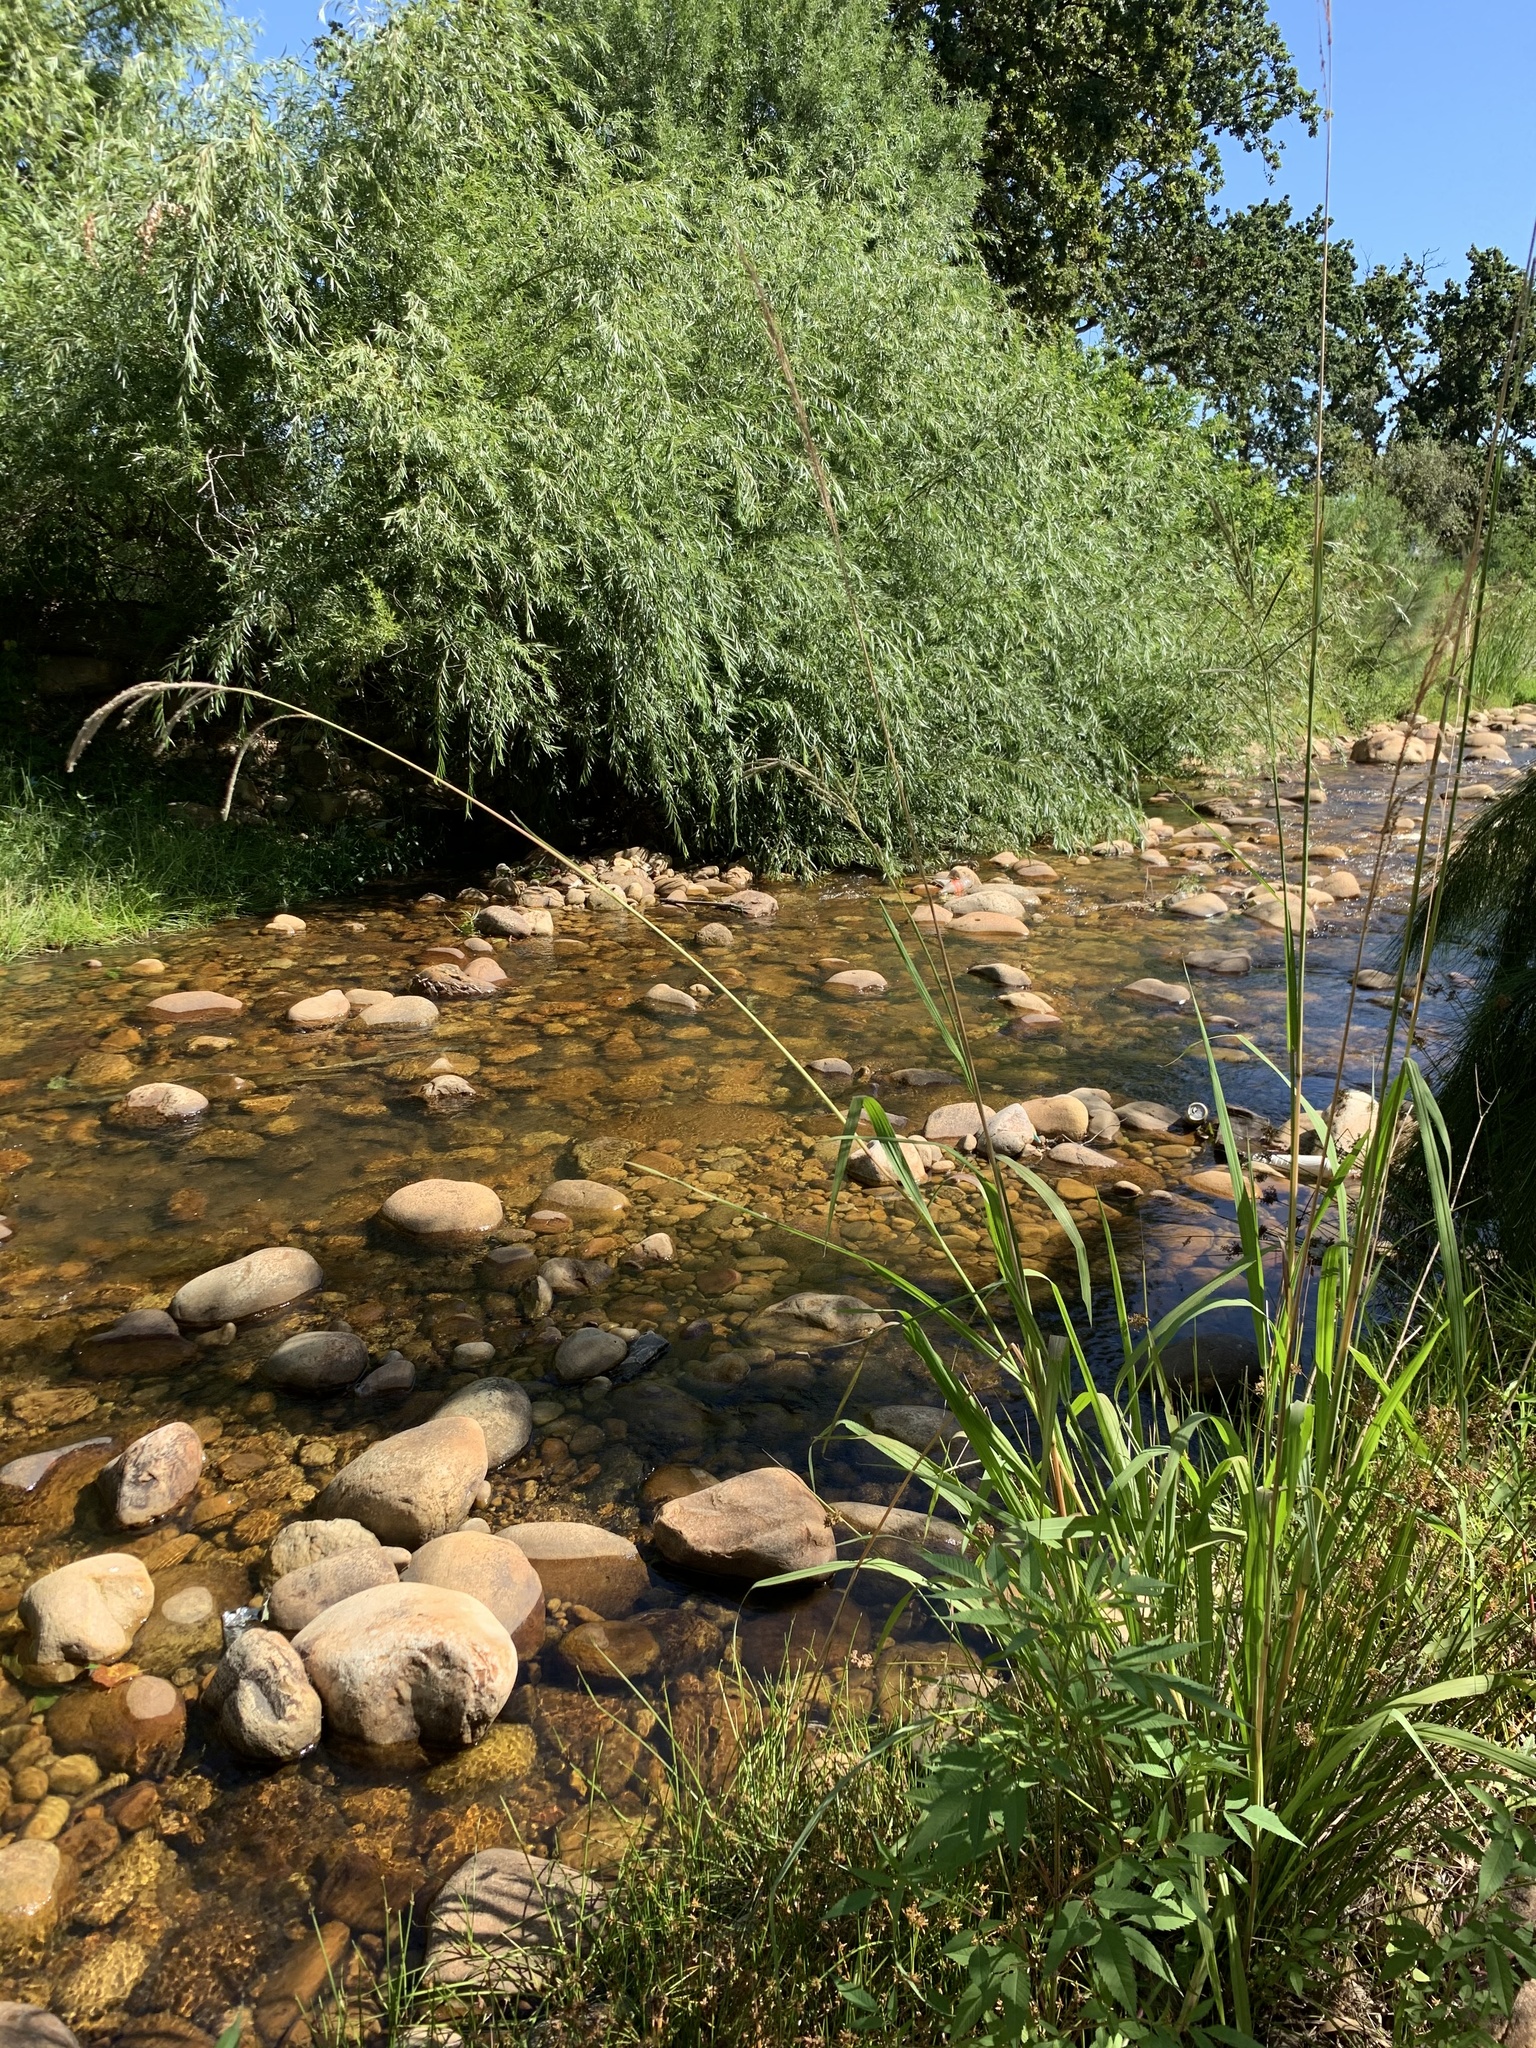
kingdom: Plantae
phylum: Tracheophyta
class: Liliopsida
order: Poales
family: Poaceae
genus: Paspalum
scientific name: Paspalum urvillei
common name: Vasey's grass
